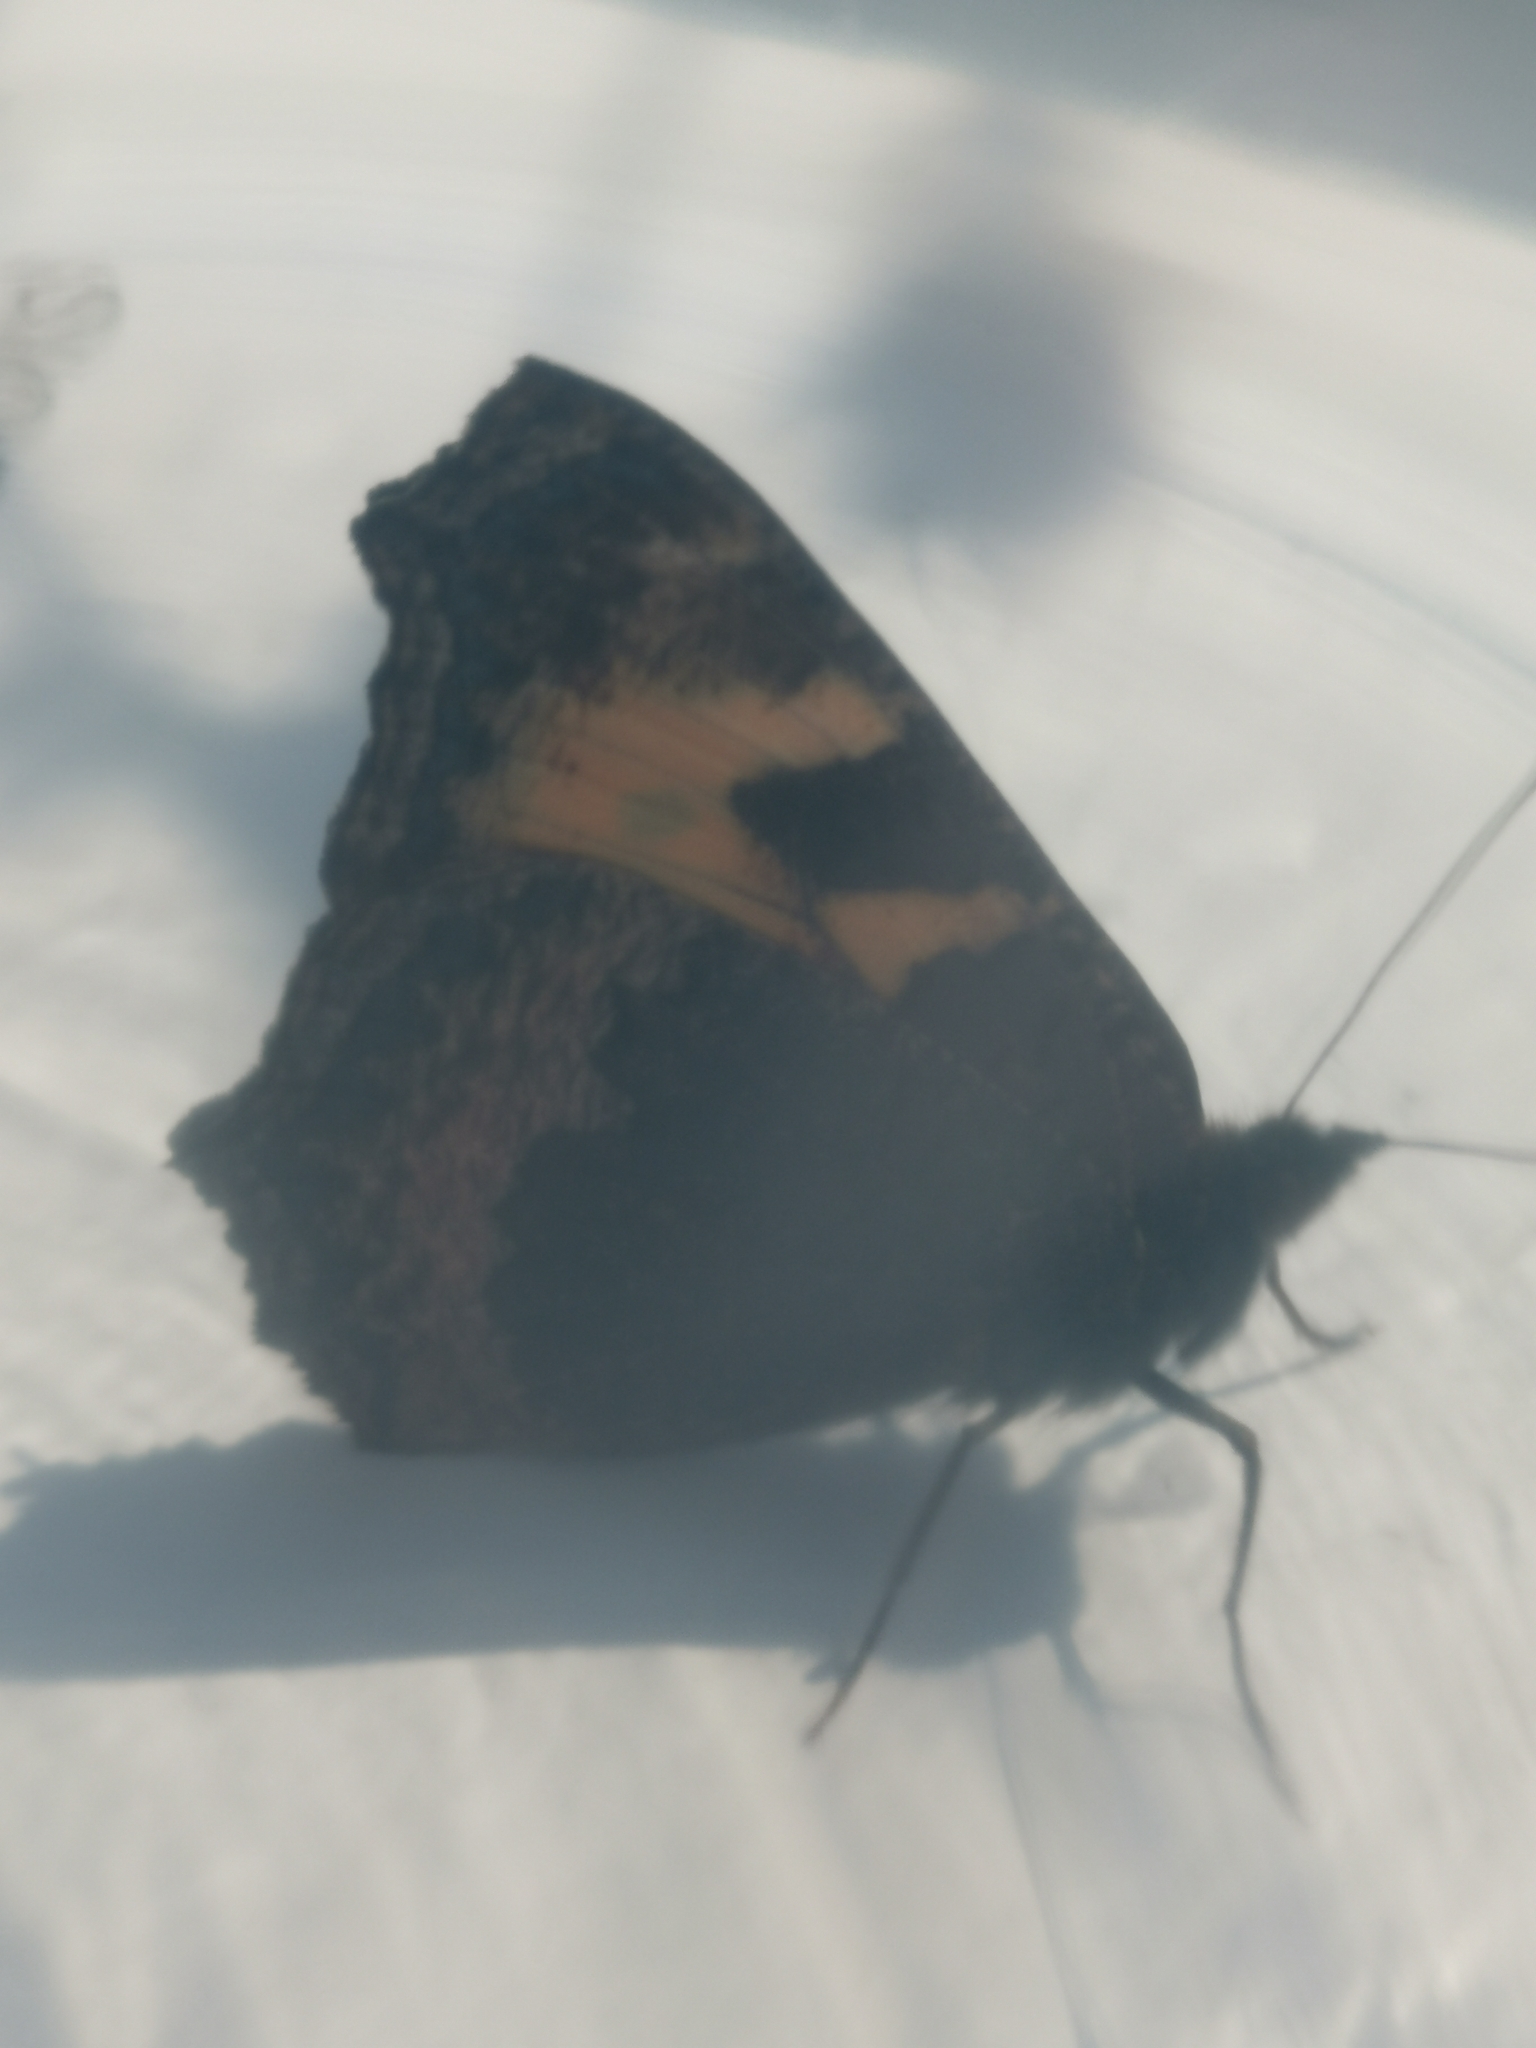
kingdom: Animalia
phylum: Arthropoda
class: Insecta
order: Lepidoptera
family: Nymphalidae
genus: Aglais
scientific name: Aglais urticae
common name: Small tortoiseshell
